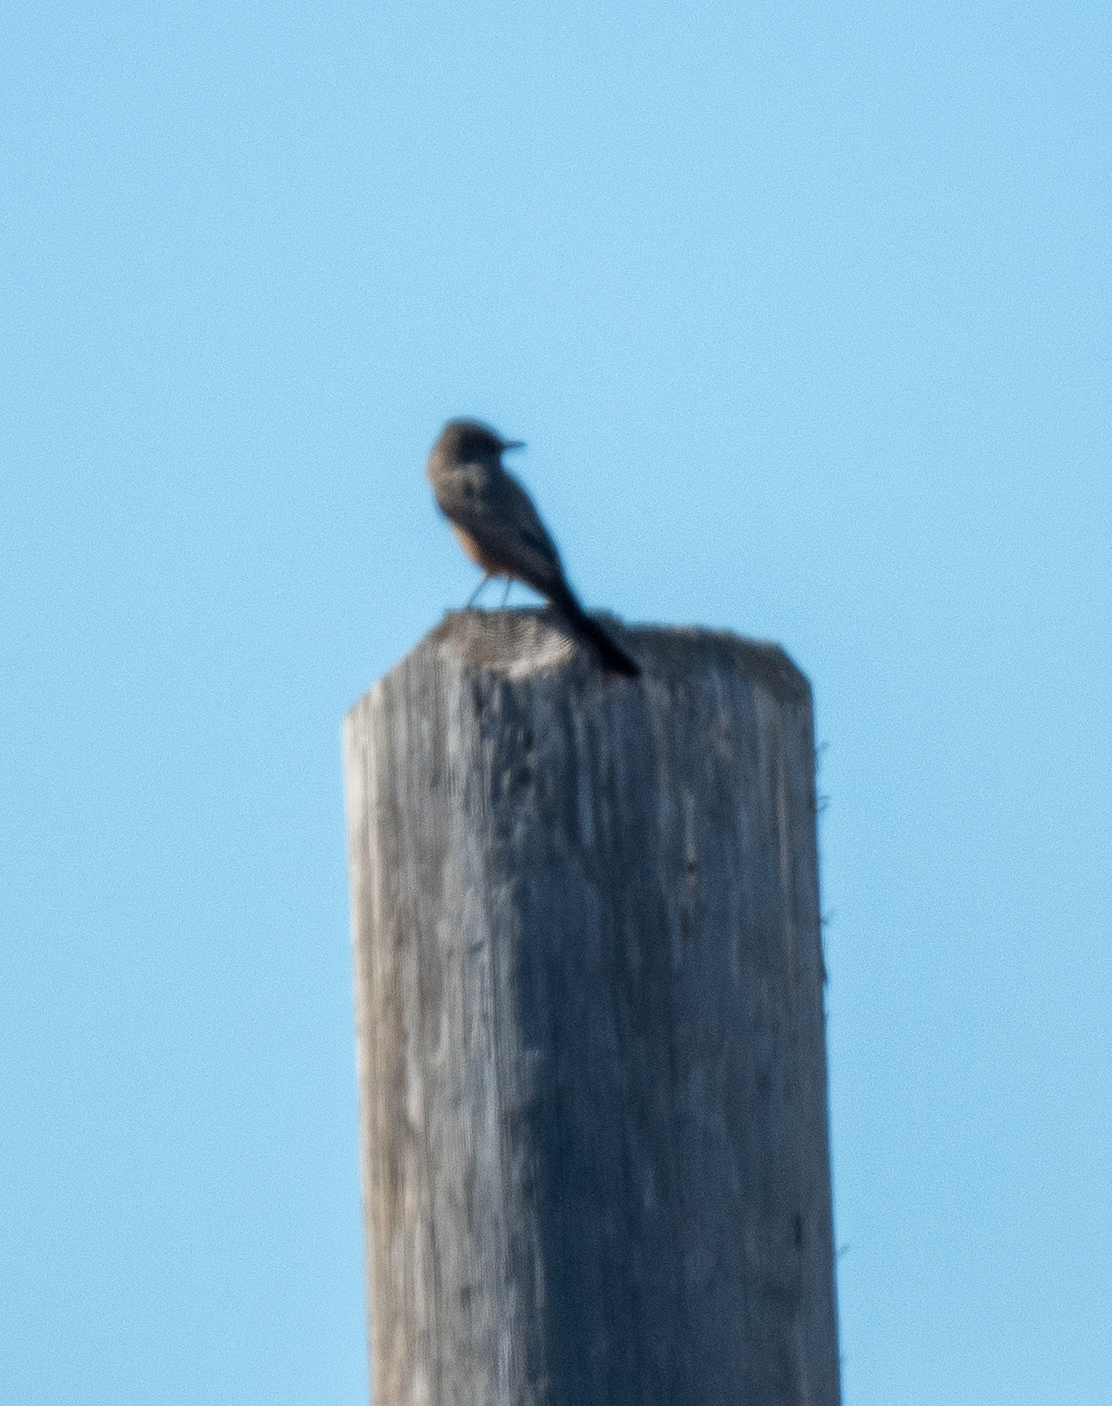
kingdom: Animalia
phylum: Chordata
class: Aves
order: Passeriformes
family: Tyrannidae
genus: Sayornis
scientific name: Sayornis saya
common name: Say's phoebe
